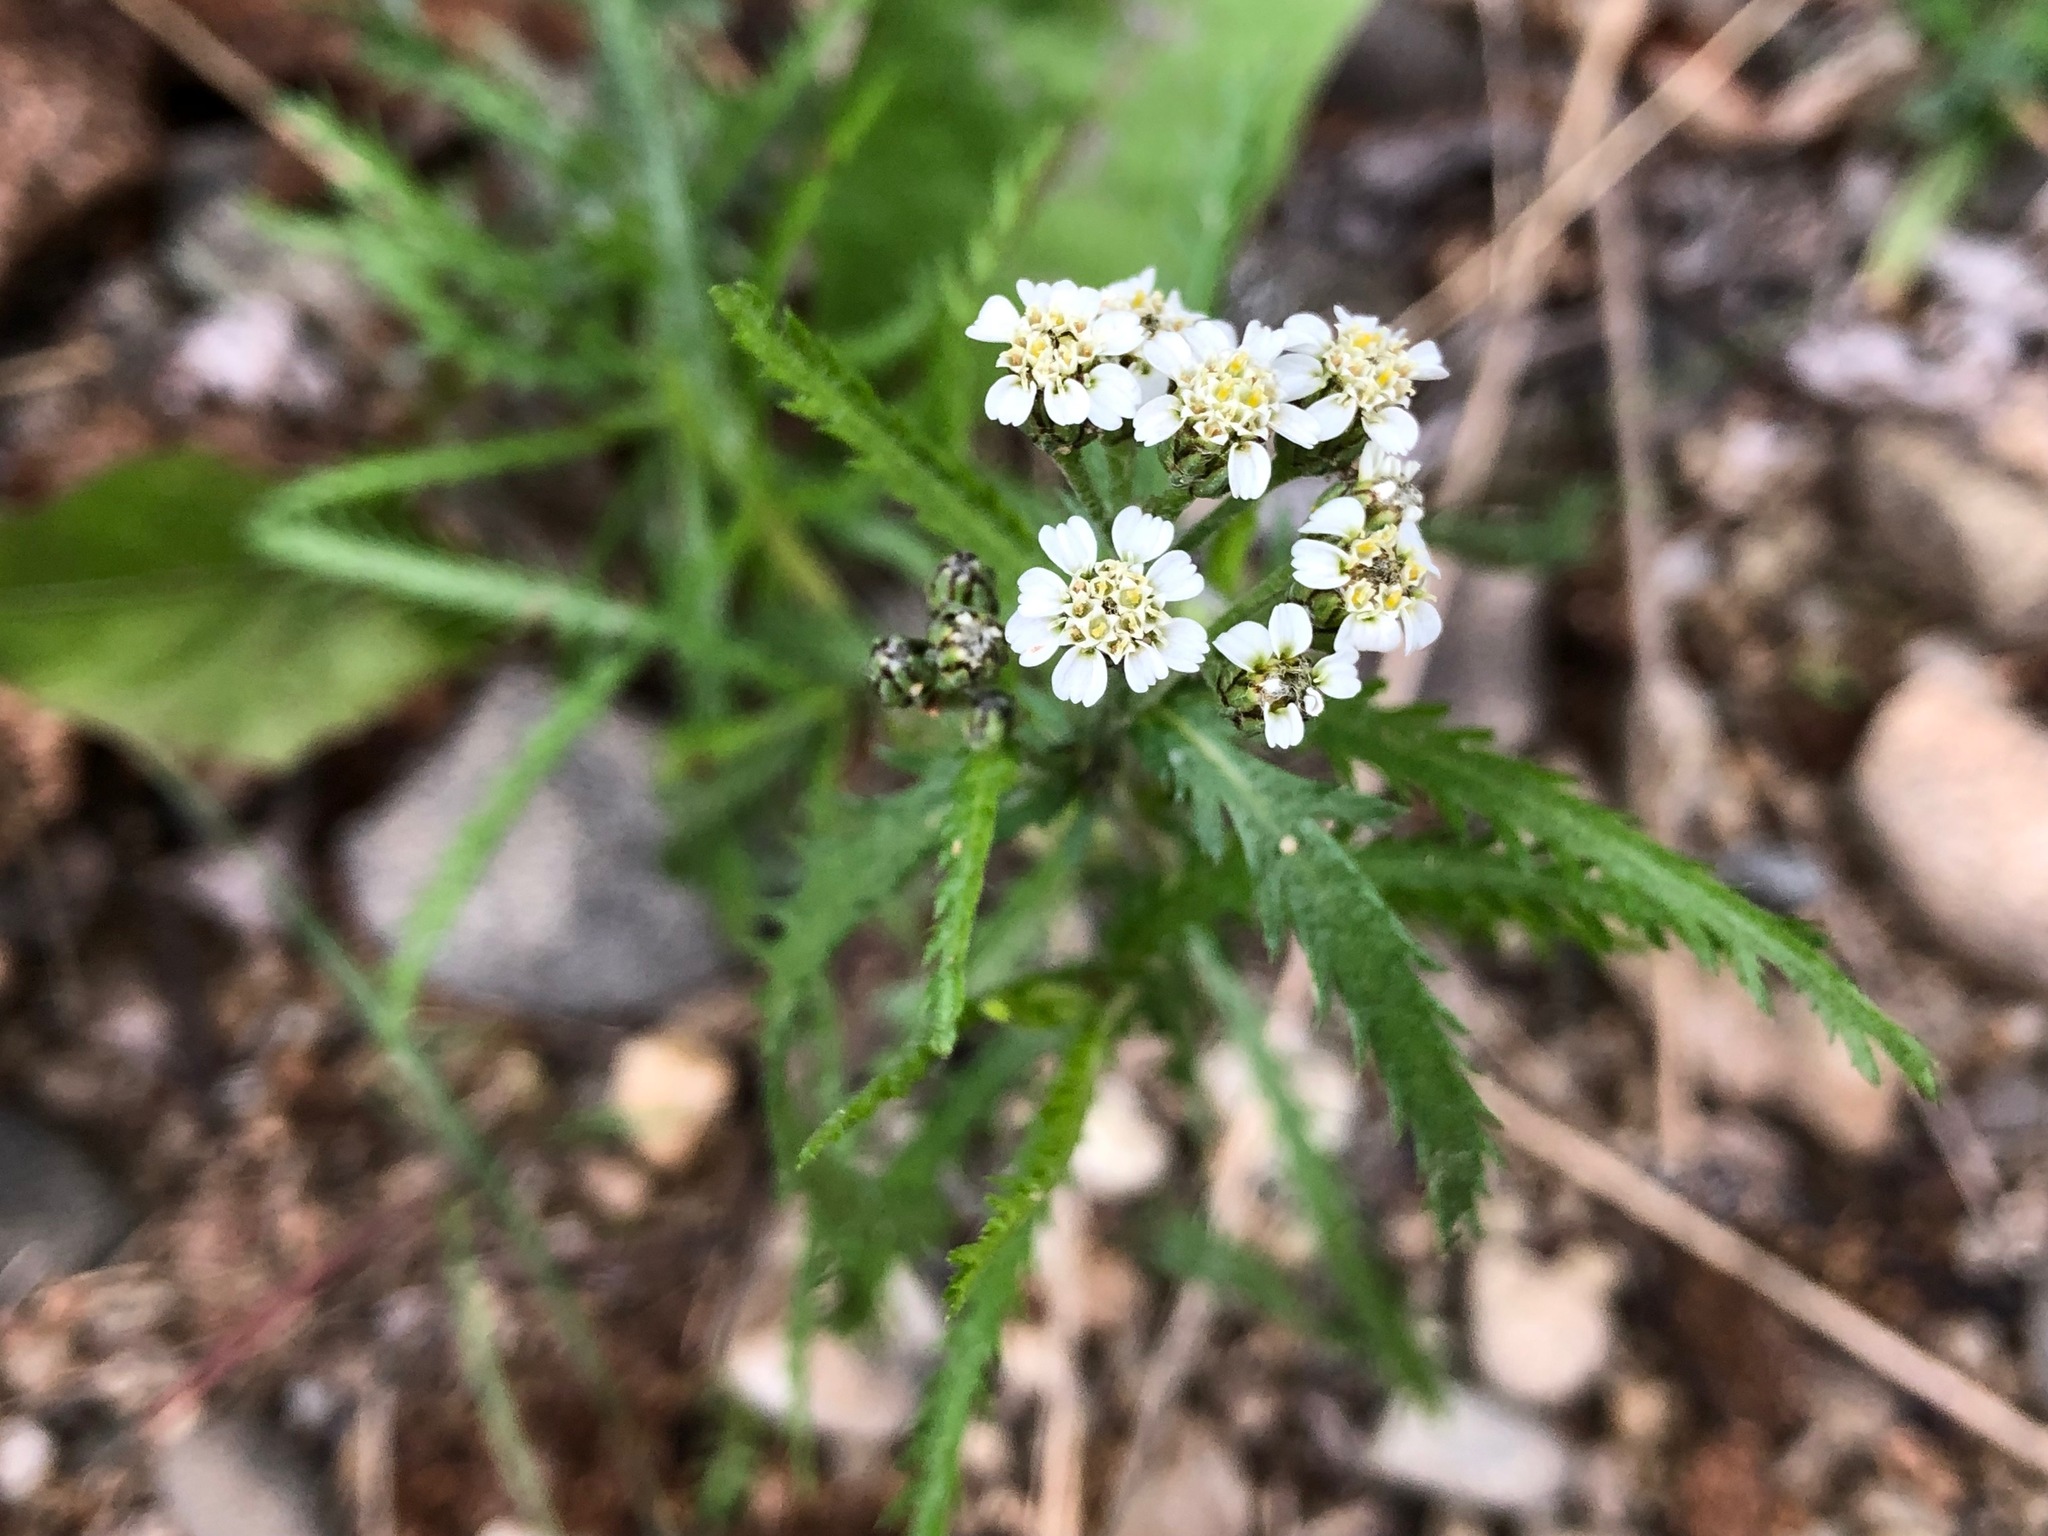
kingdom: Plantae
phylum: Tracheophyta
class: Magnoliopsida
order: Asterales
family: Asteraceae
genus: Achillea
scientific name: Achillea alpina
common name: Siberian yarrow
